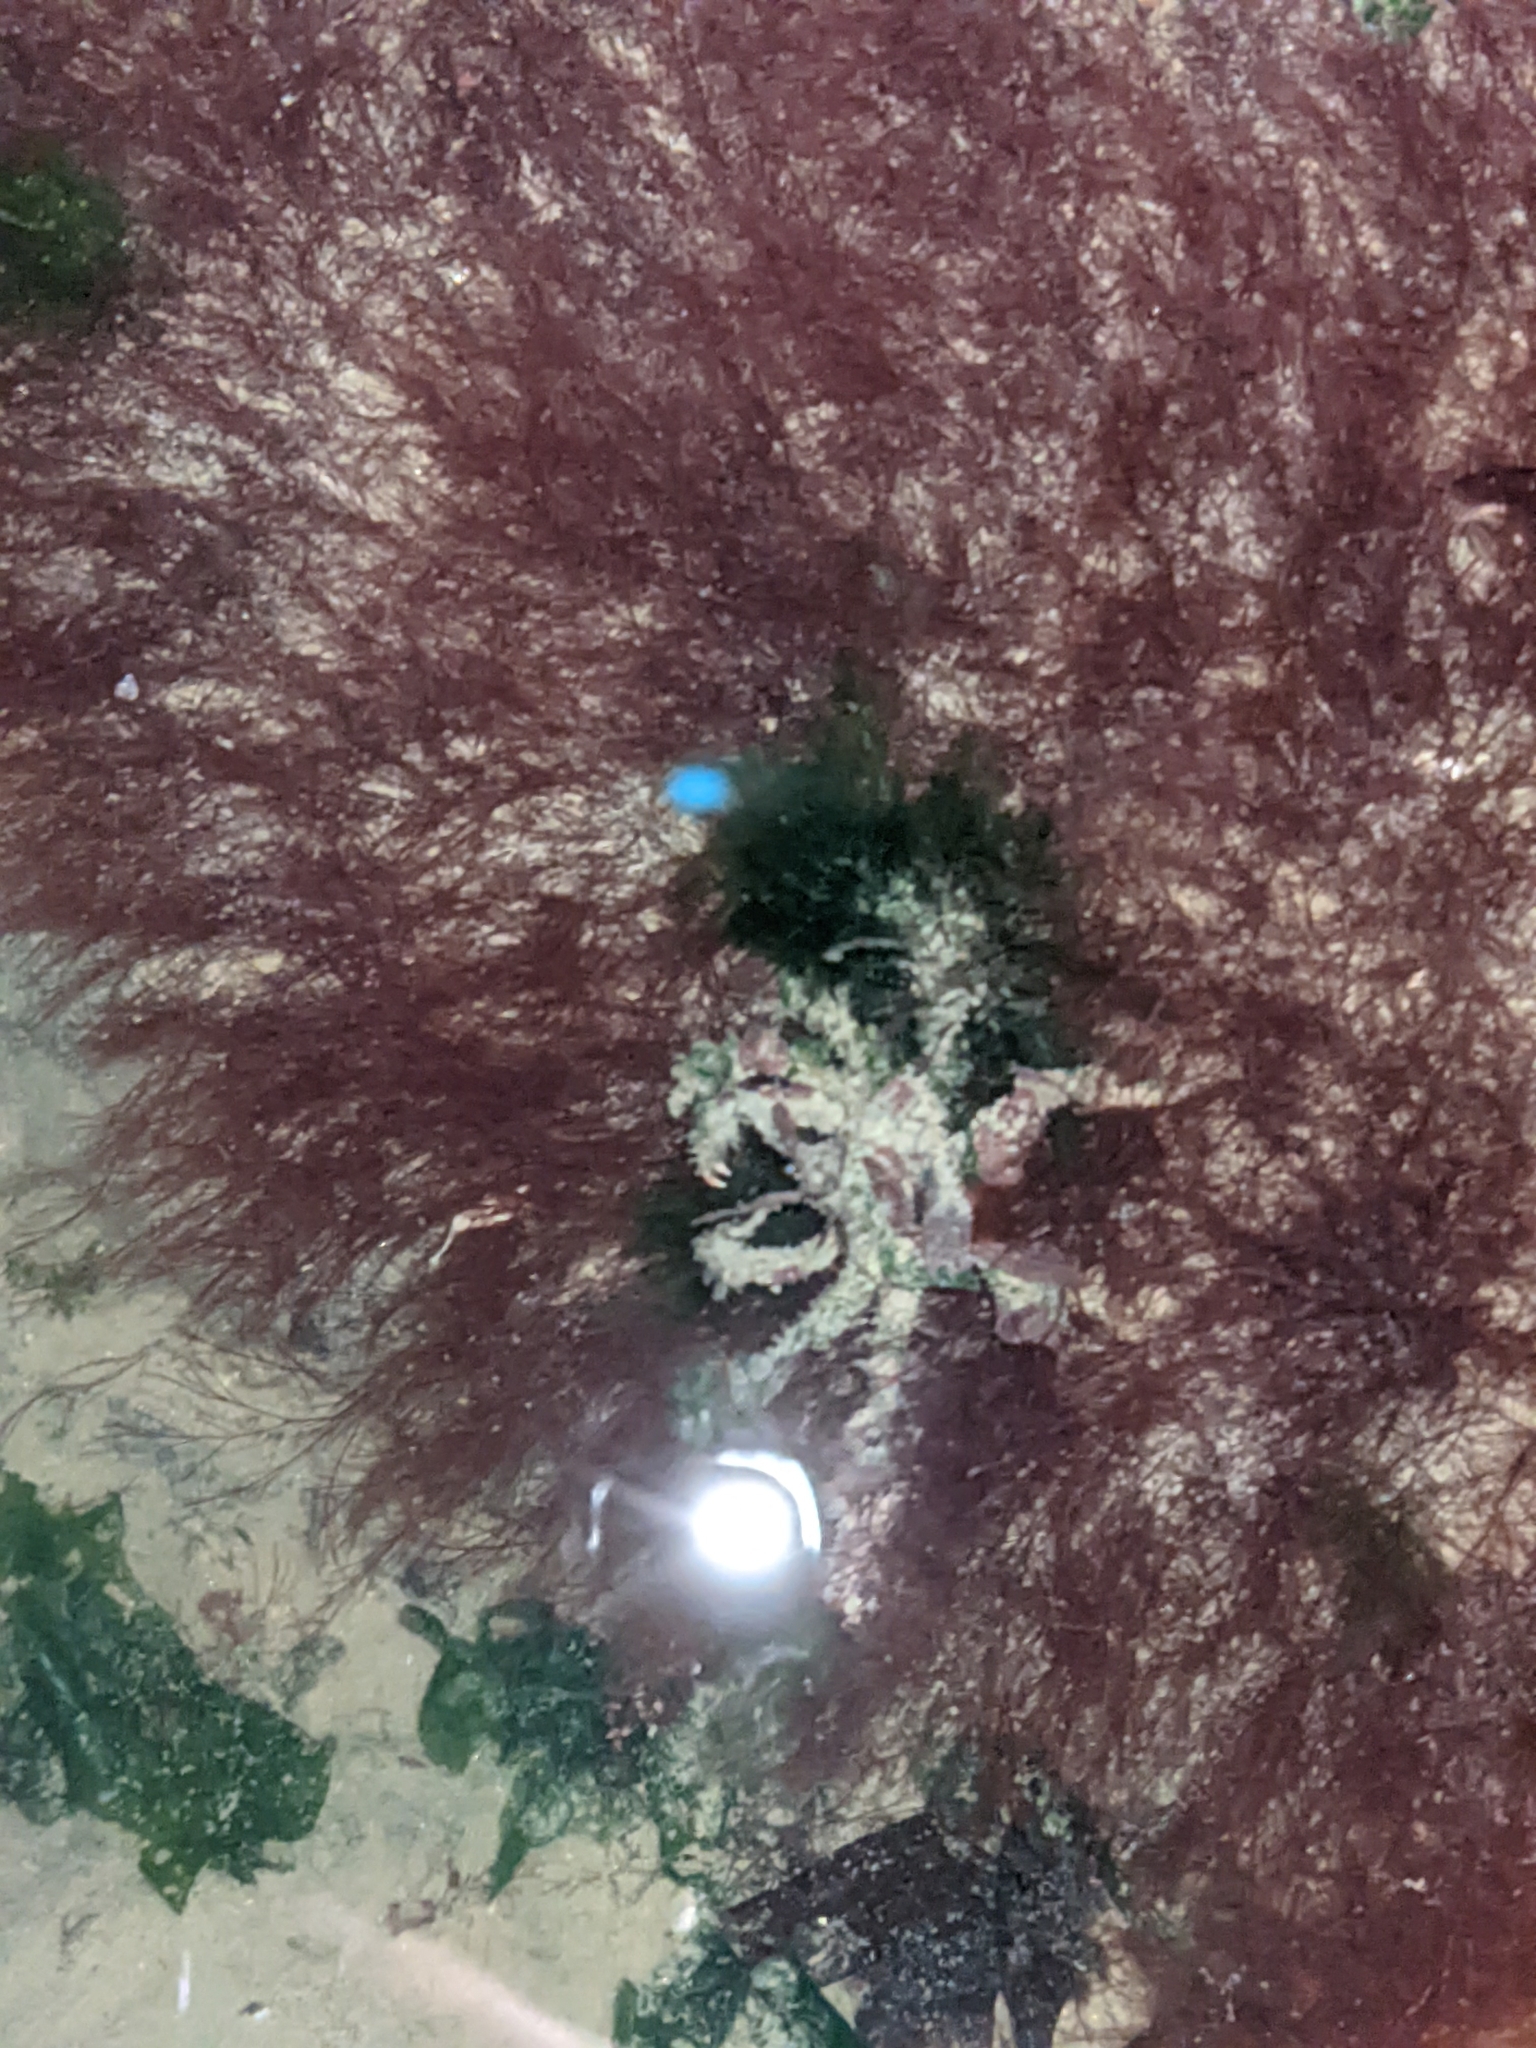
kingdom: Animalia
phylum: Arthropoda
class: Malacostraca
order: Decapoda
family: Oregoniidae
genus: Oregonia
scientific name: Oregonia gracilis
